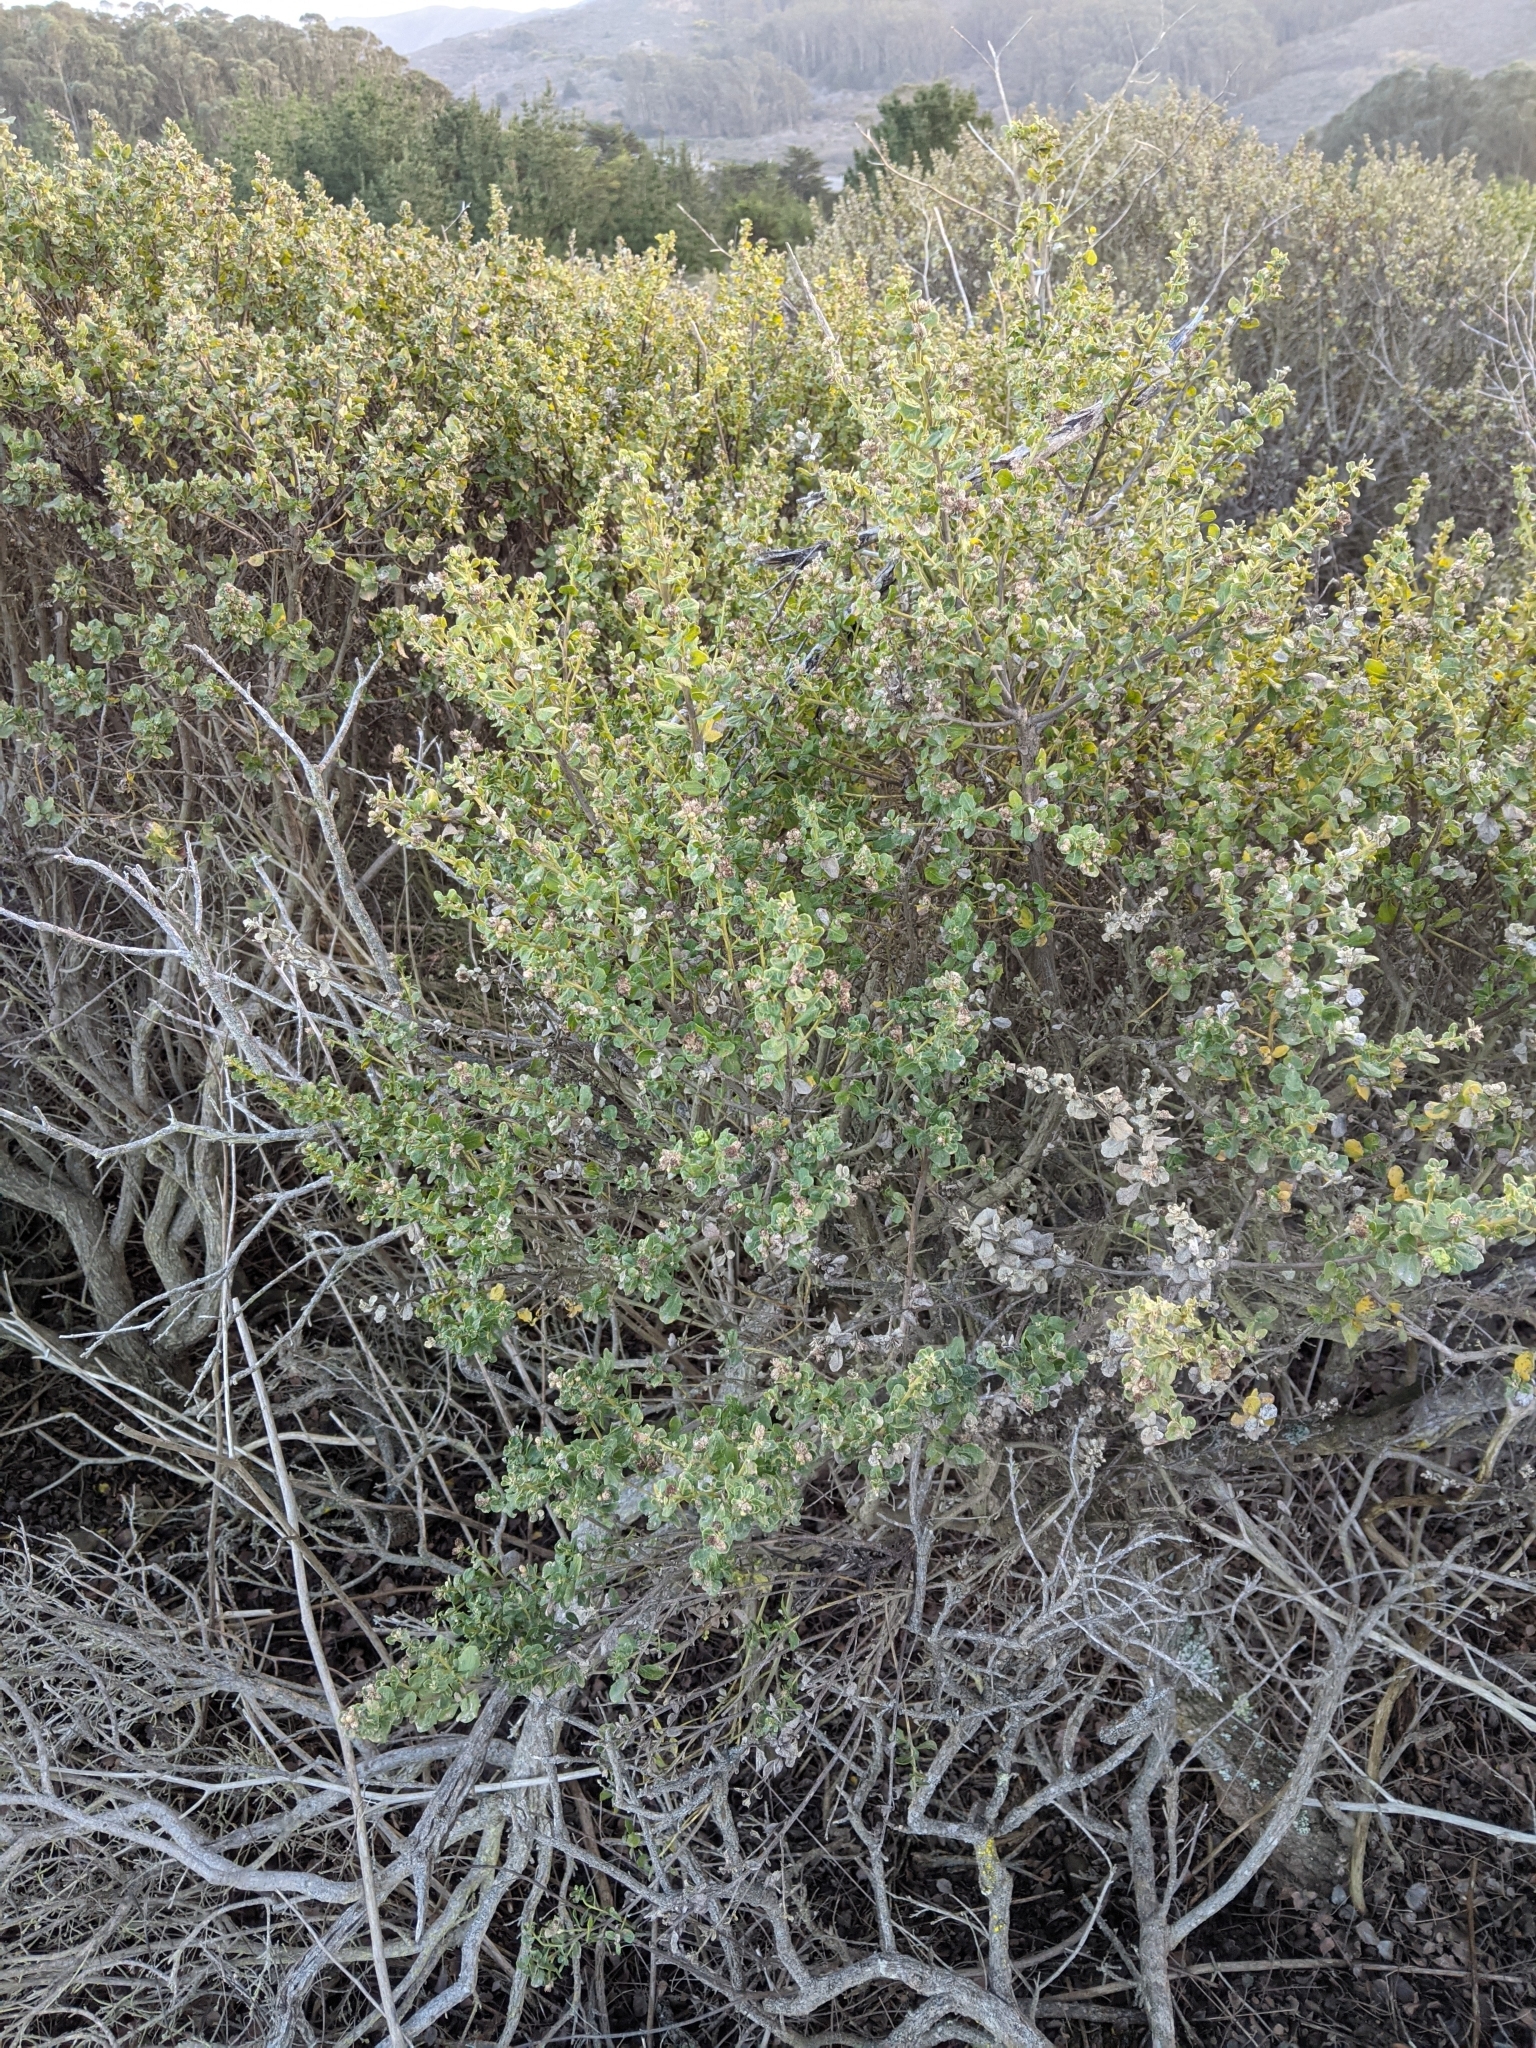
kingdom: Plantae
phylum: Tracheophyta
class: Magnoliopsida
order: Asterales
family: Asteraceae
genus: Baccharis
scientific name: Baccharis pilularis
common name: Coyotebrush
